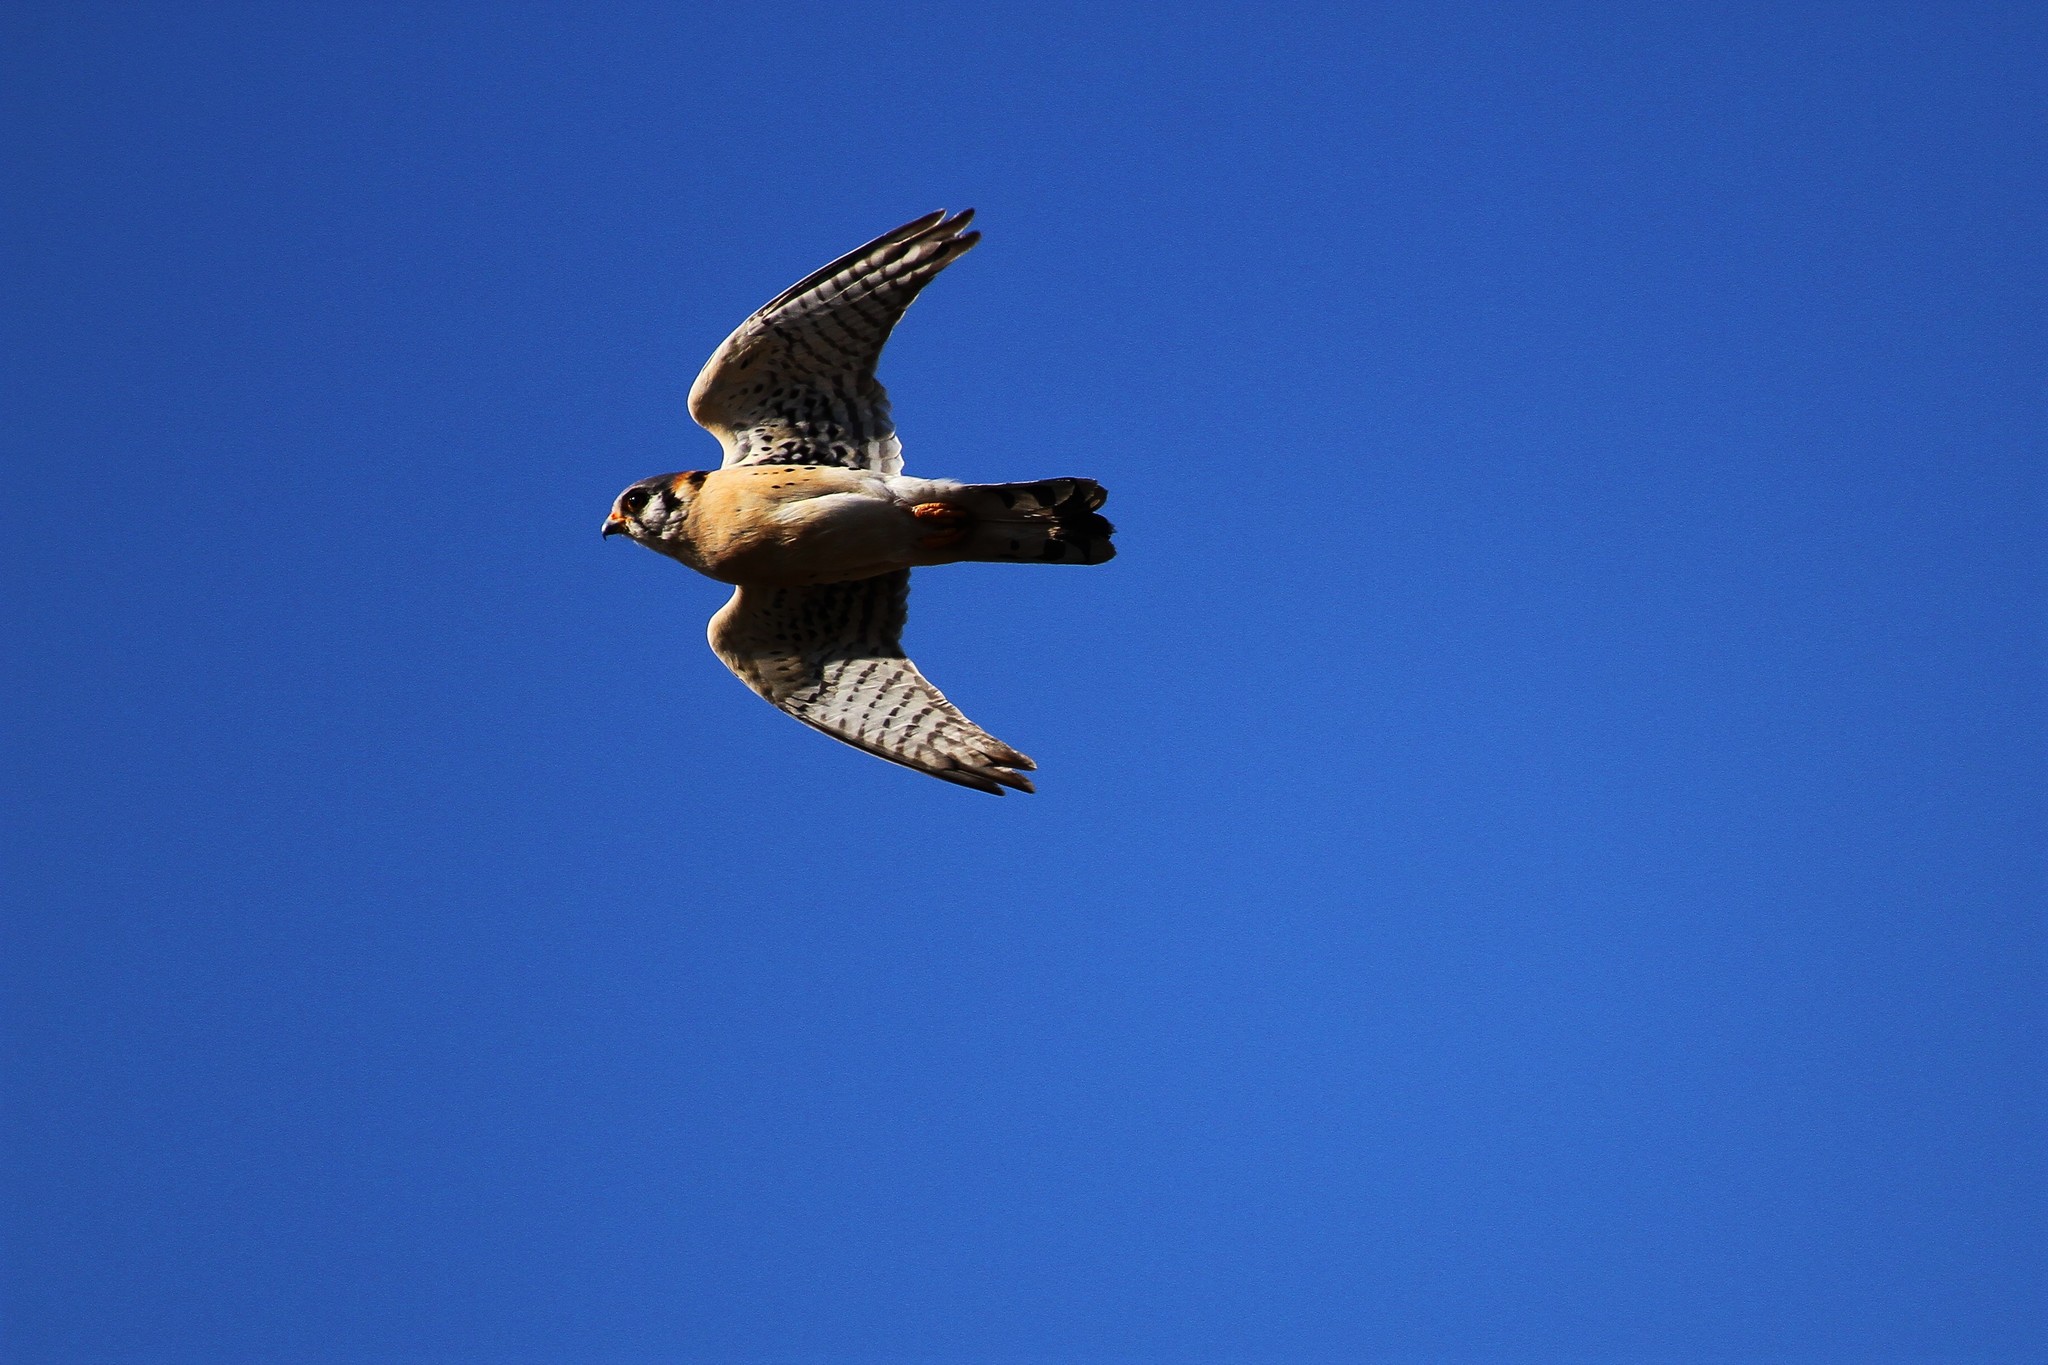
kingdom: Animalia
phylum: Chordata
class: Aves
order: Falconiformes
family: Falconidae
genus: Falco
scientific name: Falco sparverius
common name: American kestrel
